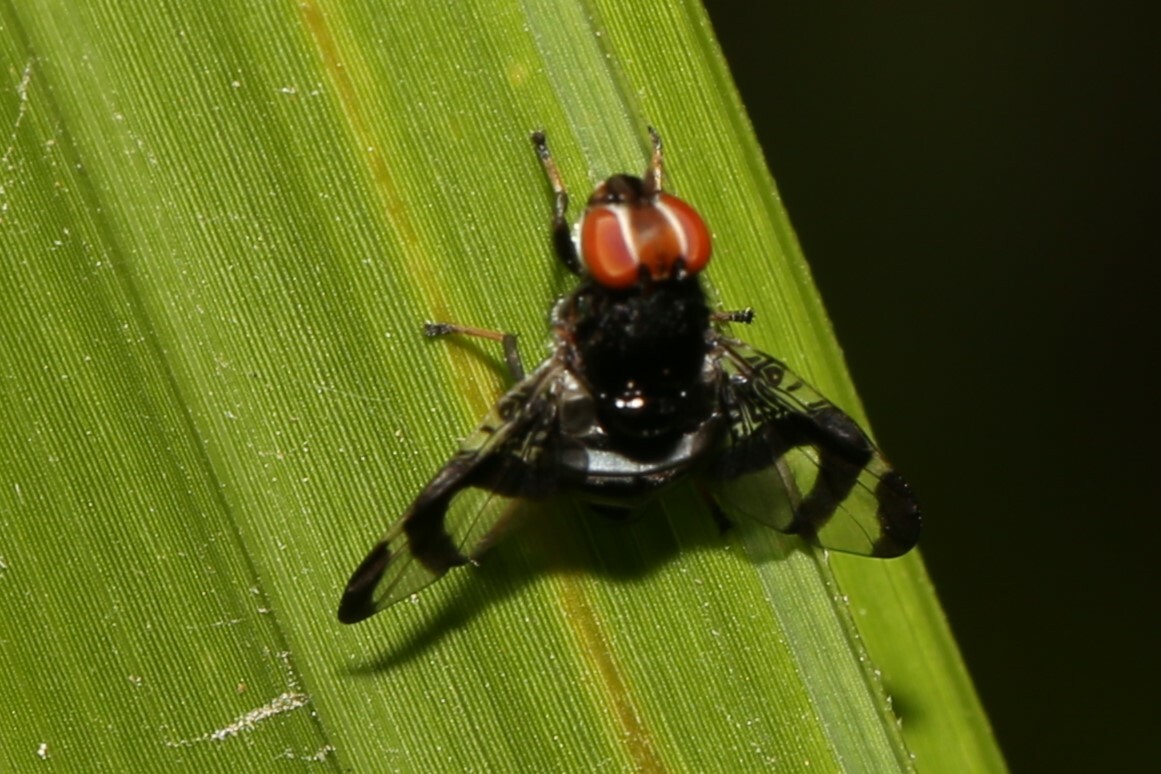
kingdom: Animalia
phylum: Arthropoda
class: Insecta
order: Diptera
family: Platystomatidae
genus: Lenophila
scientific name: Lenophila dentipes
